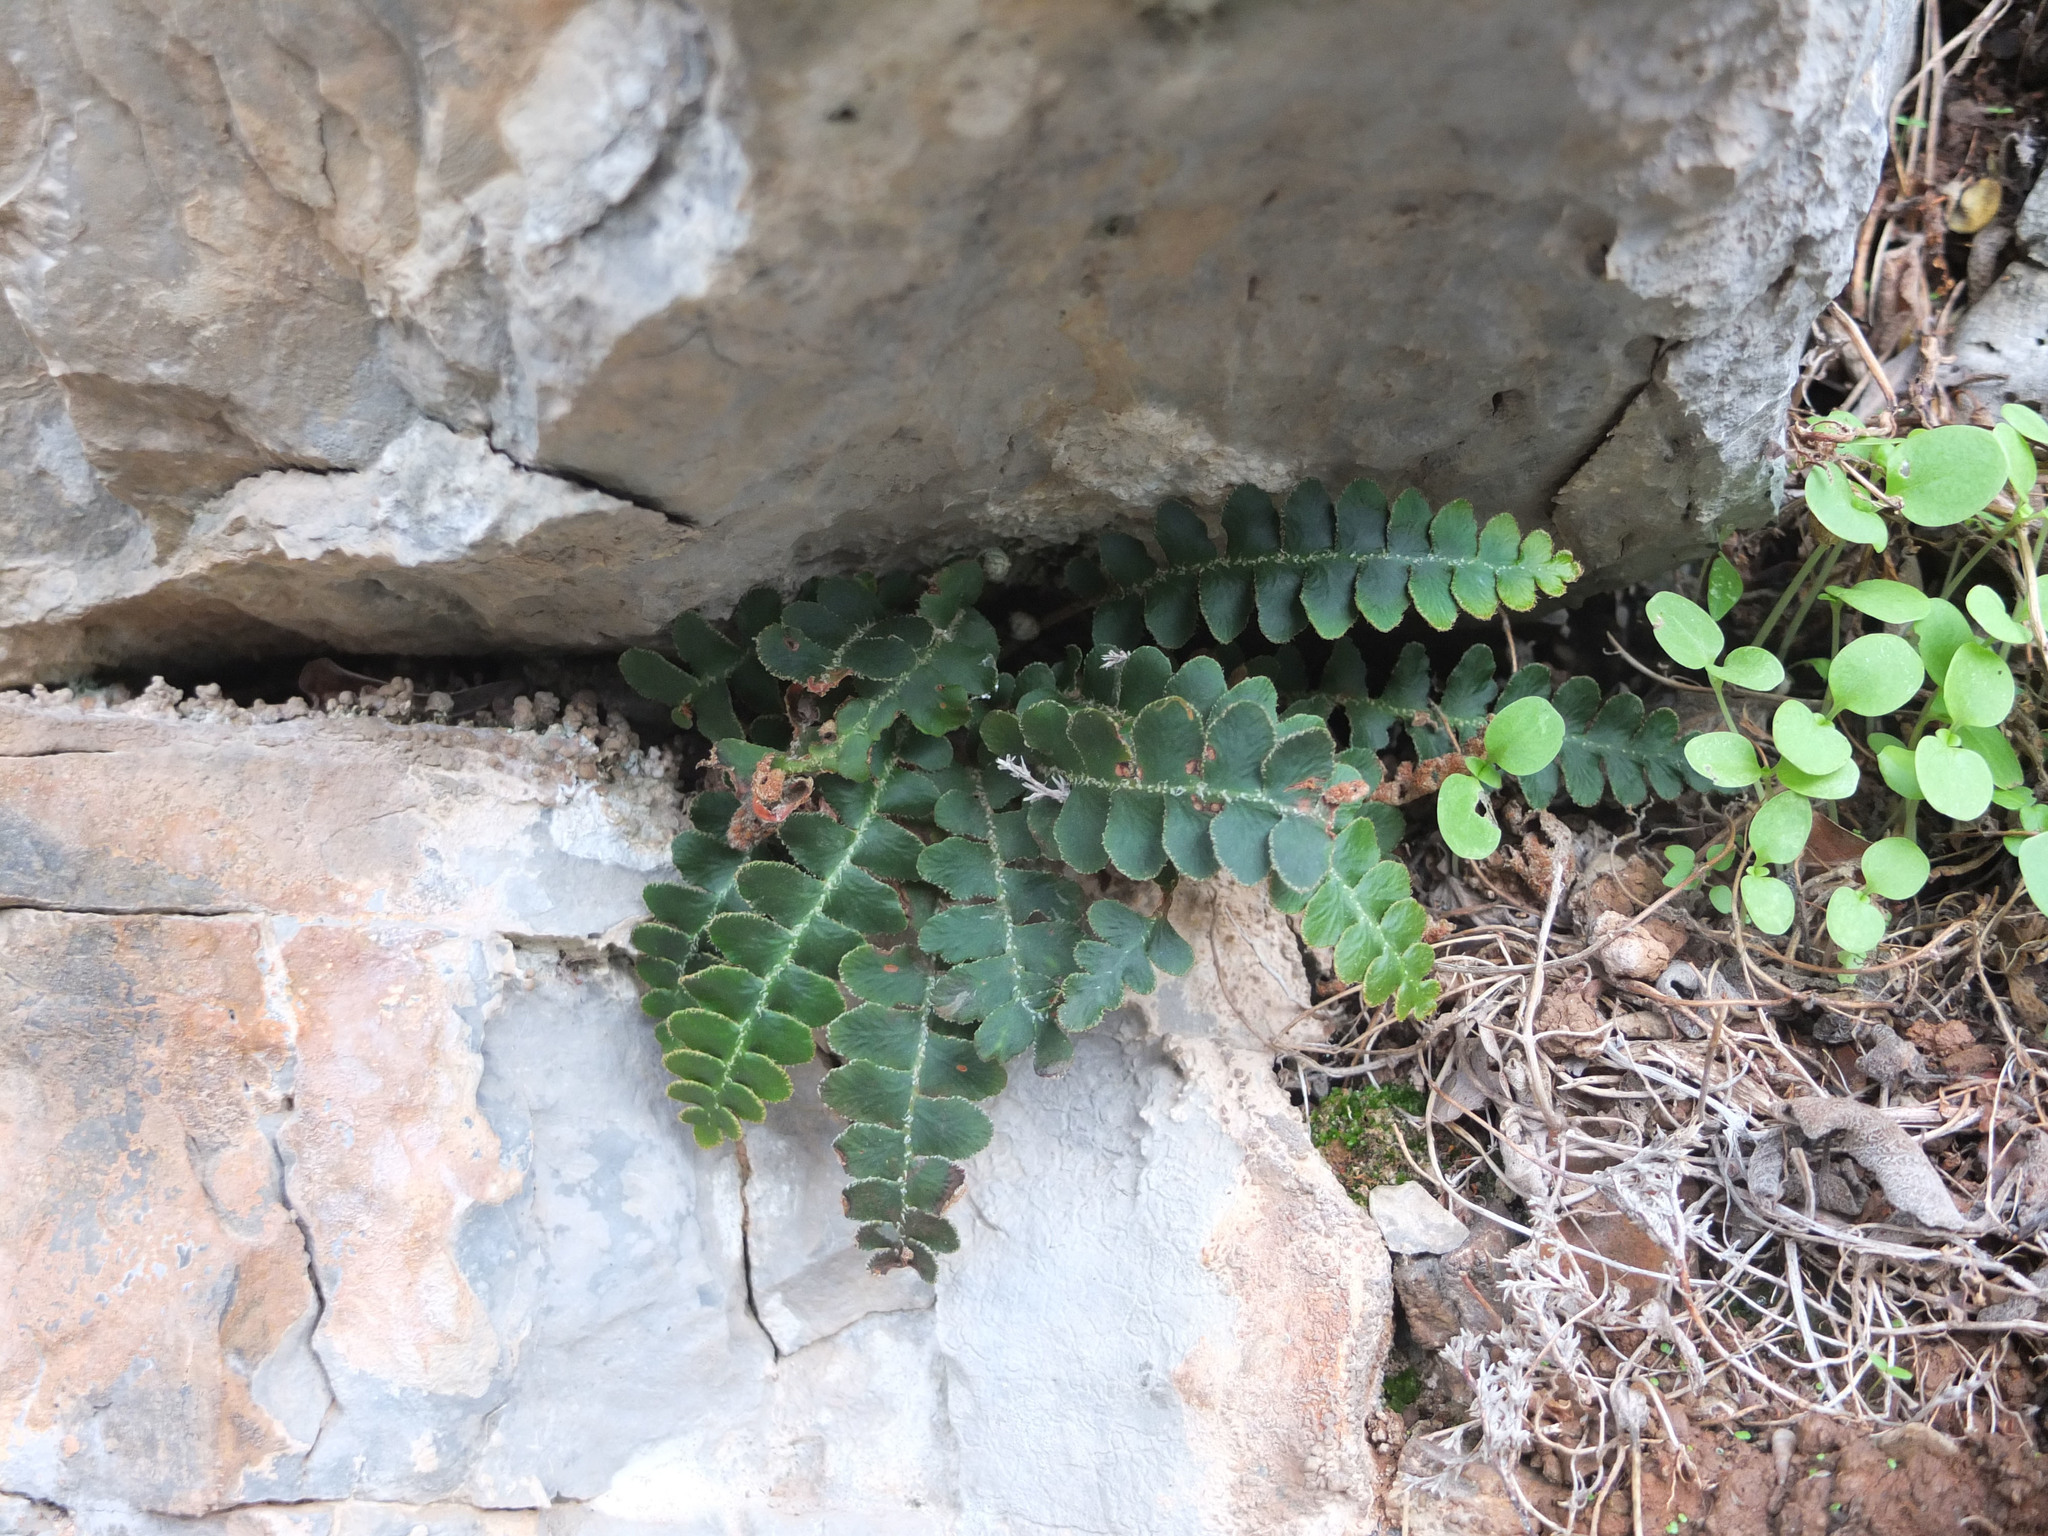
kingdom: Plantae
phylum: Tracheophyta
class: Polypodiopsida
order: Polypodiales
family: Aspleniaceae
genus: Asplenium
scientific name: Asplenium ceterach
